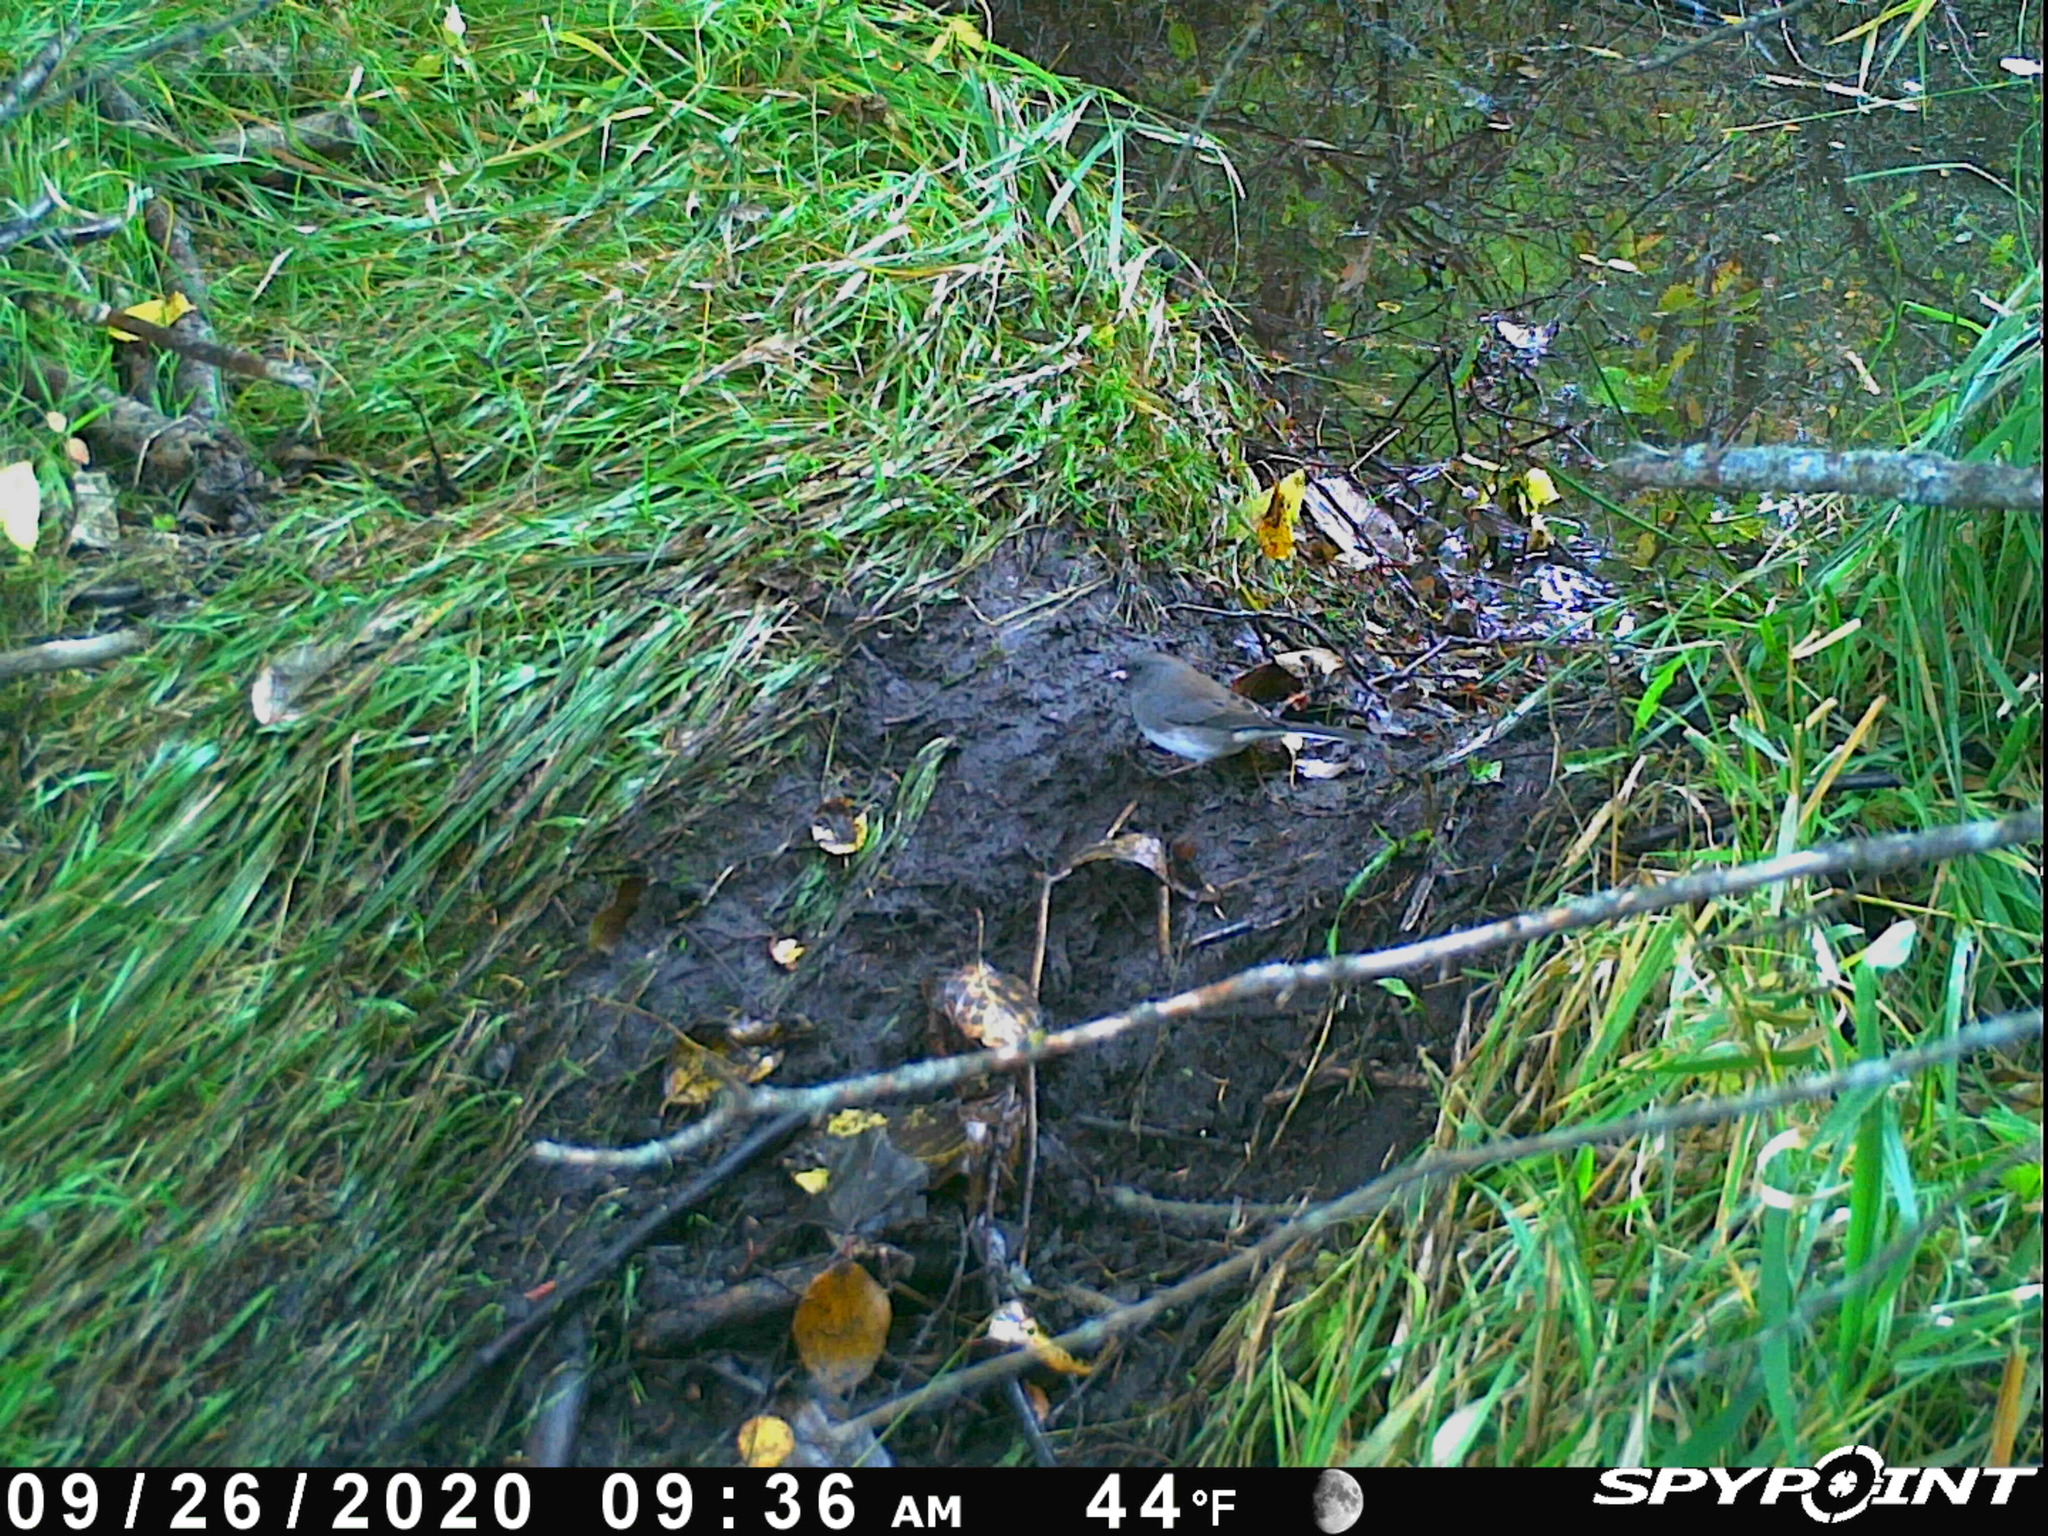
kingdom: Animalia
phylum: Chordata
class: Aves
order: Passeriformes
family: Passerellidae
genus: Junco
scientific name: Junco hyemalis
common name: Dark-eyed junco
